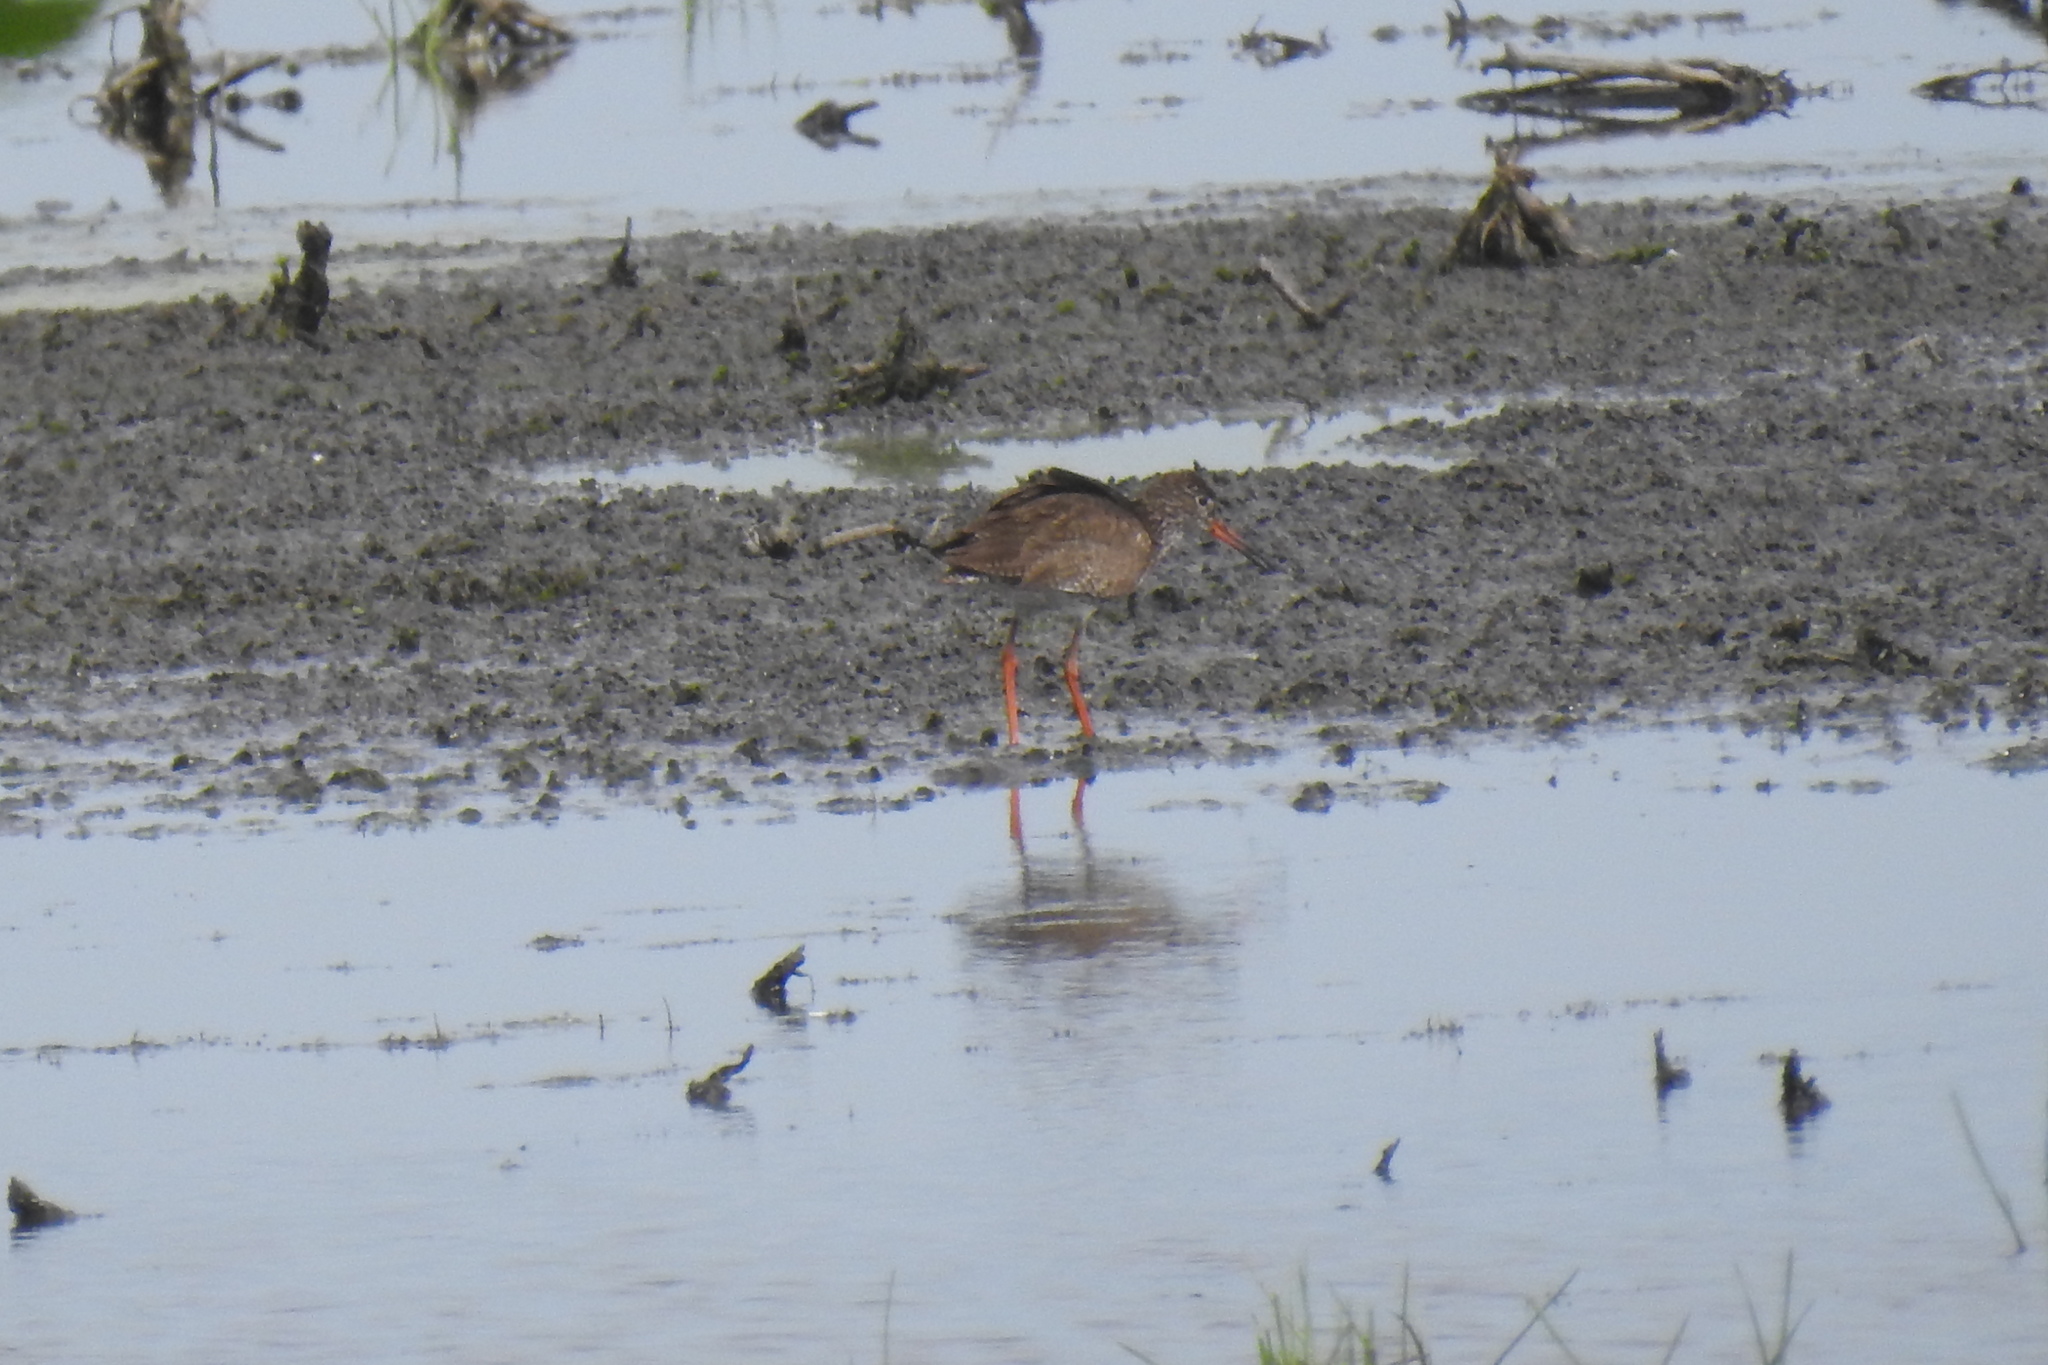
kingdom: Animalia
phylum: Chordata
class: Aves
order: Charadriiformes
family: Scolopacidae
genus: Tringa
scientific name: Tringa totanus
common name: Common redshank
